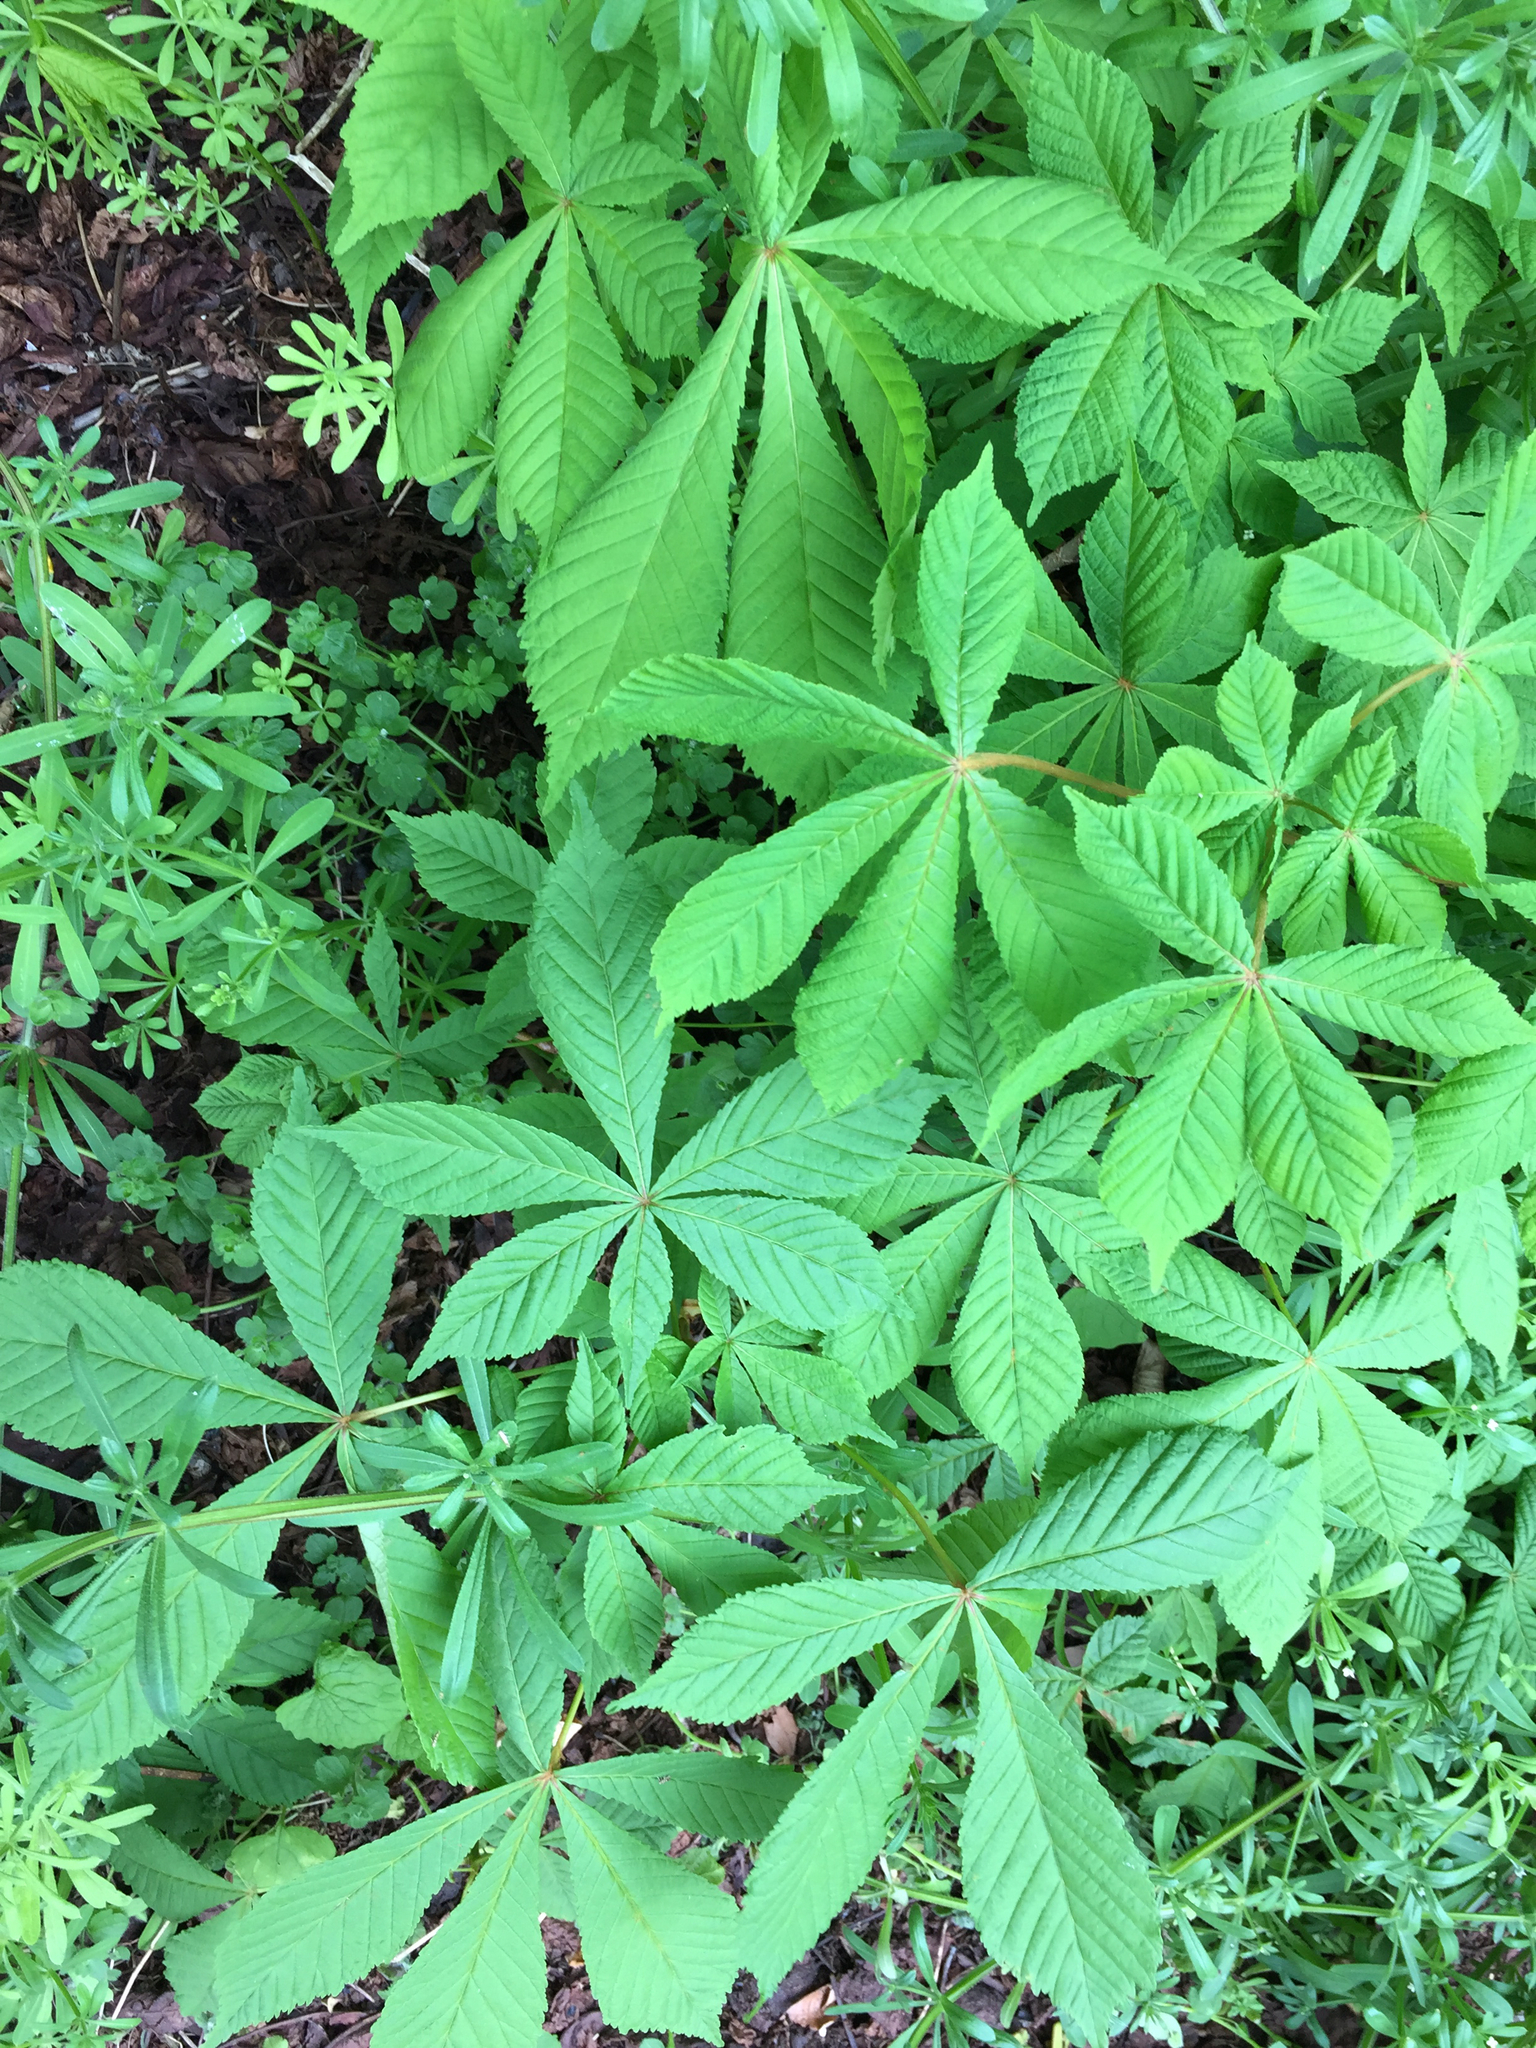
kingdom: Plantae
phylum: Tracheophyta
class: Magnoliopsida
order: Sapindales
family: Sapindaceae
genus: Aesculus
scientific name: Aesculus hippocastanum
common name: Horse-chestnut
